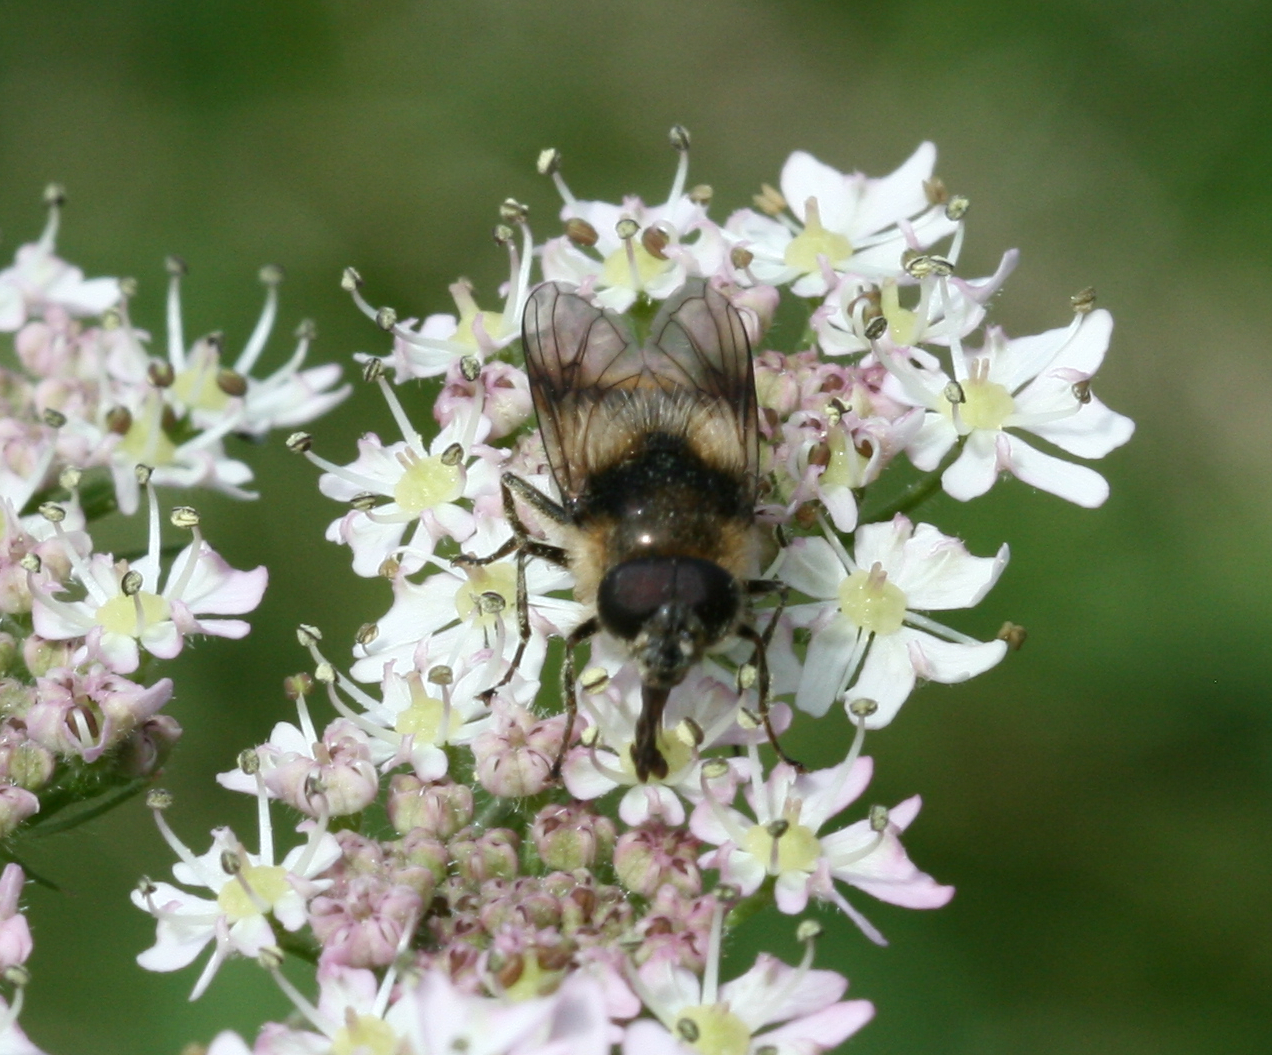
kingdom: Animalia
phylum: Arthropoda
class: Insecta
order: Diptera
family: Syrphidae
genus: Cheilosia
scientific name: Cheilosia illustrata
